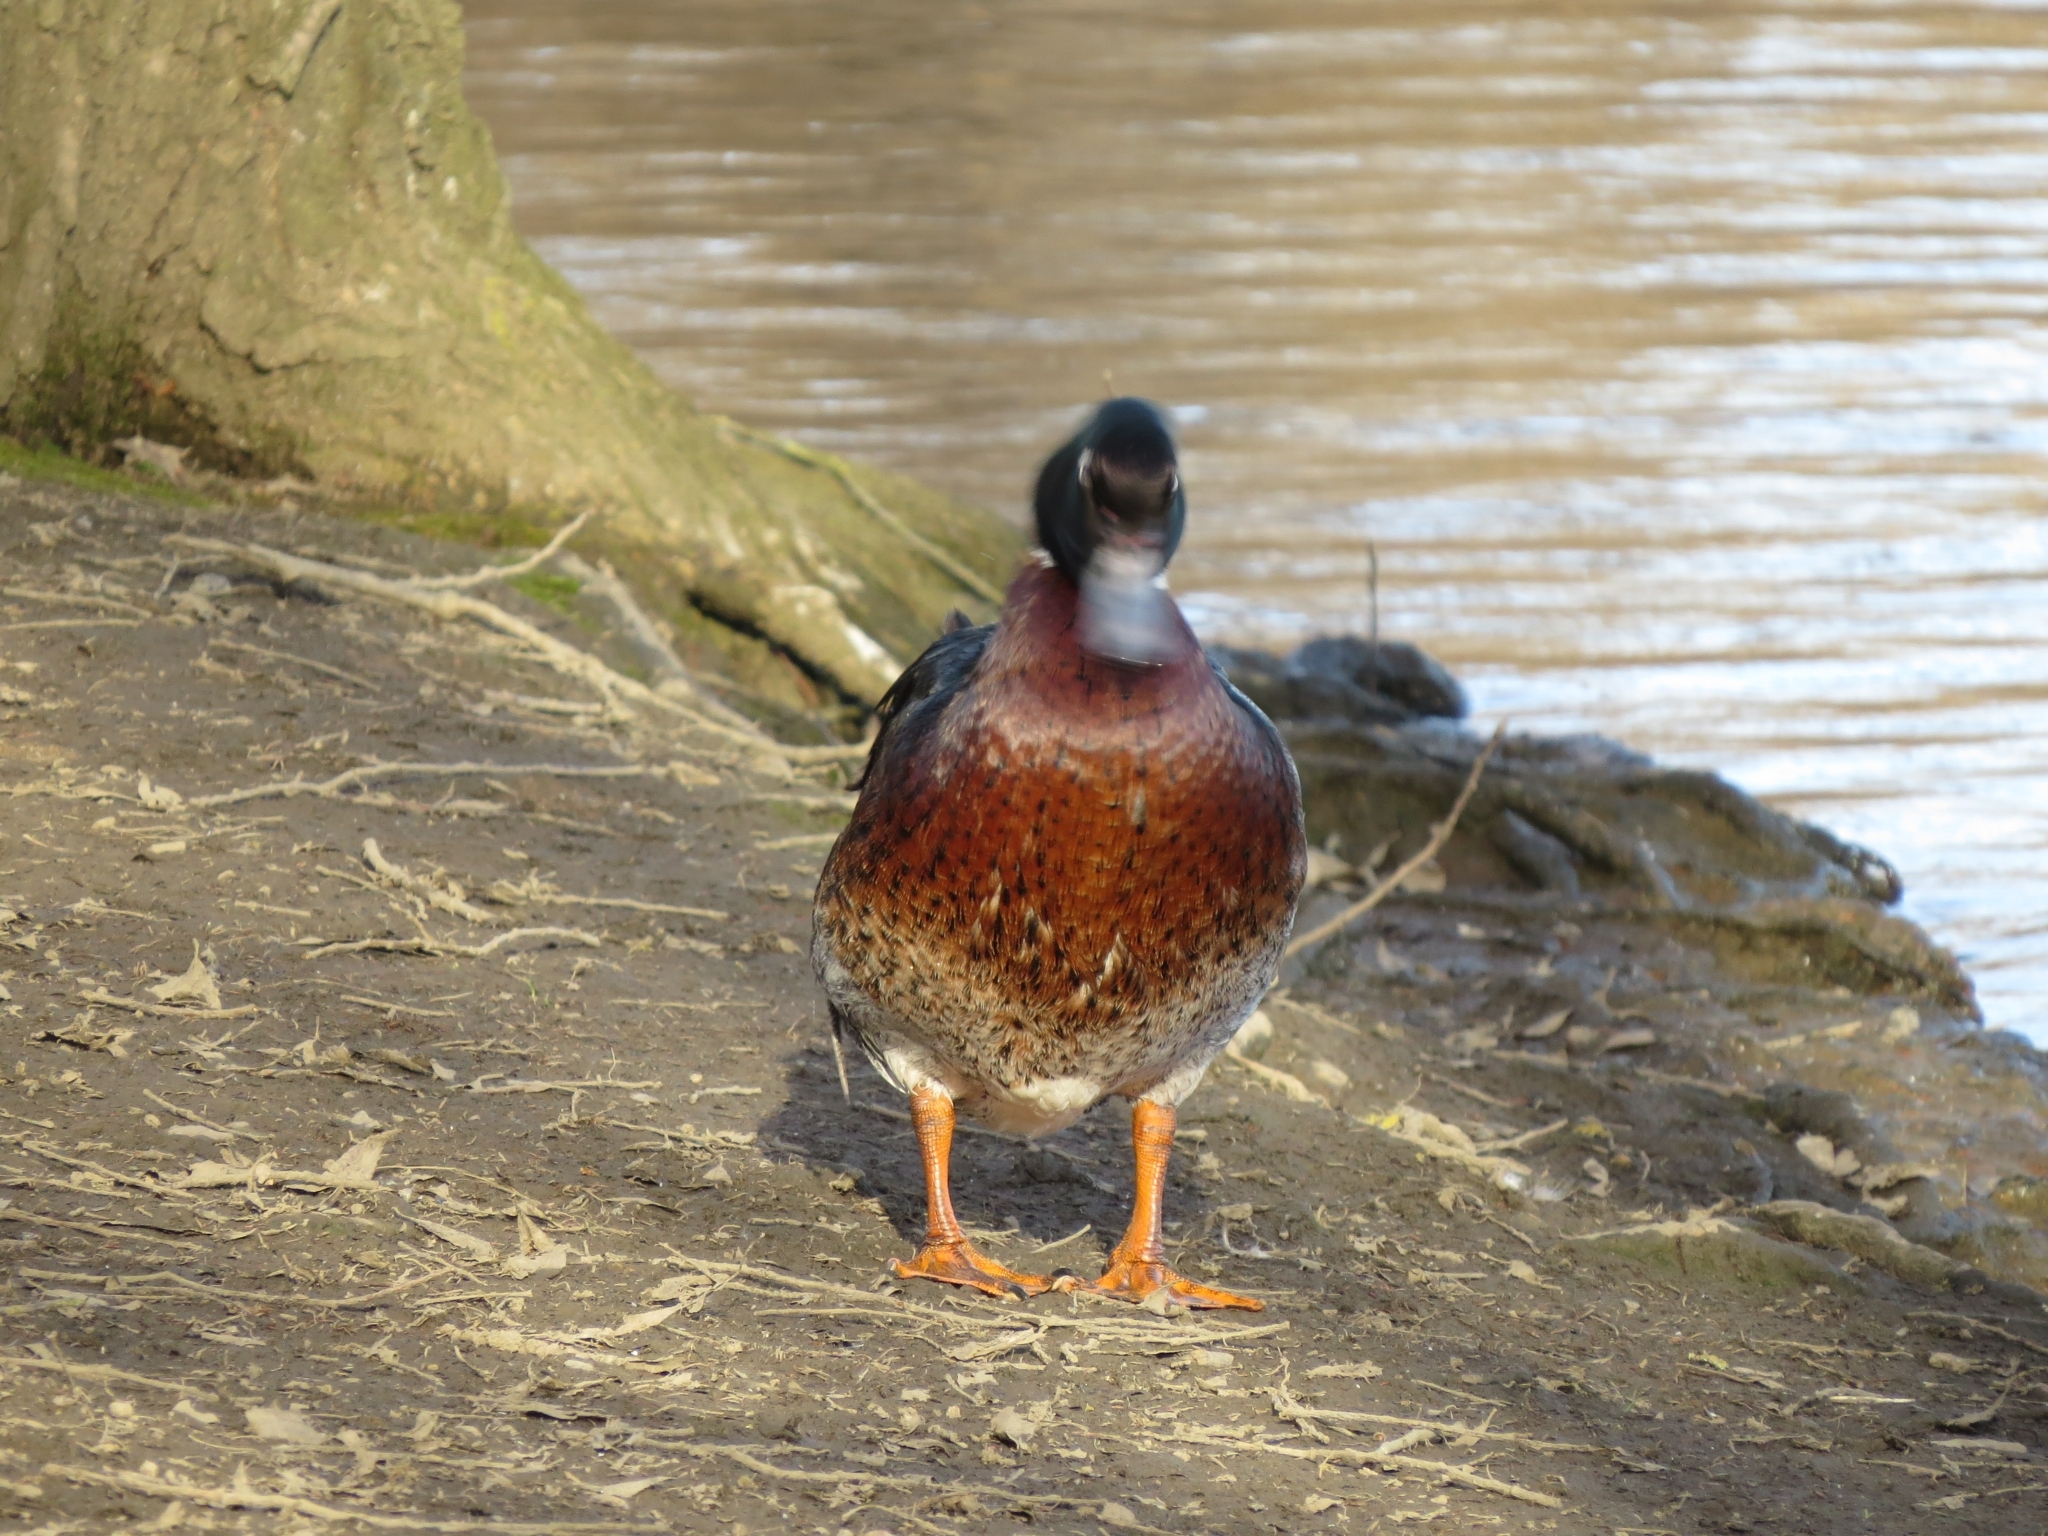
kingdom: Animalia
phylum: Chordata
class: Aves
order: Anseriformes
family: Anatidae
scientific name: Anatidae
